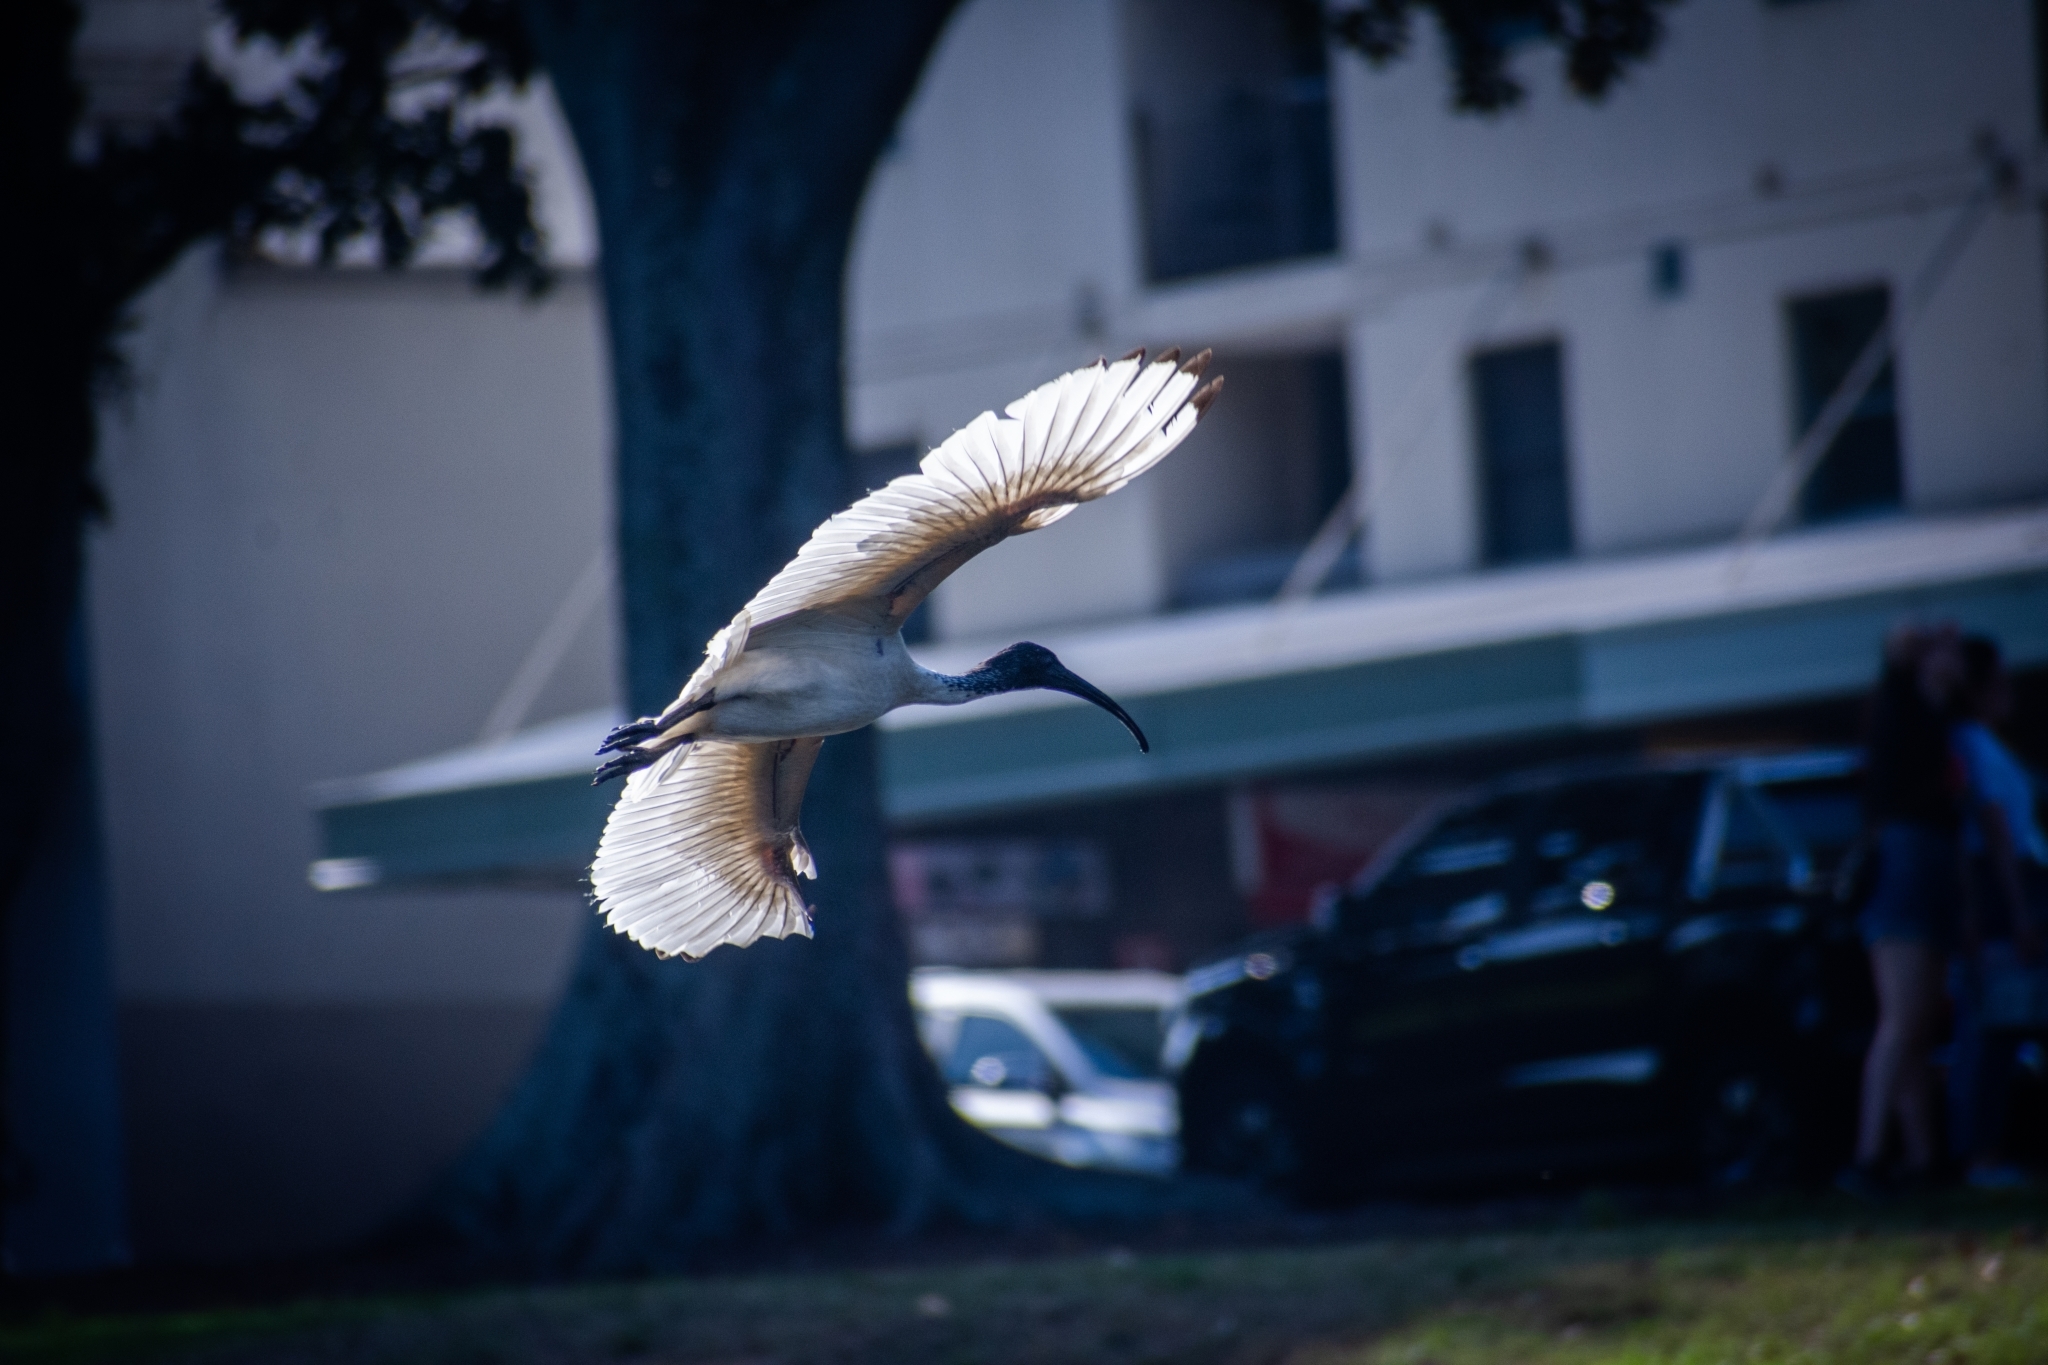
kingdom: Animalia
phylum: Chordata
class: Aves
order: Pelecaniformes
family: Threskiornithidae
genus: Threskiornis
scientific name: Threskiornis molucca
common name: Australian white ibis
